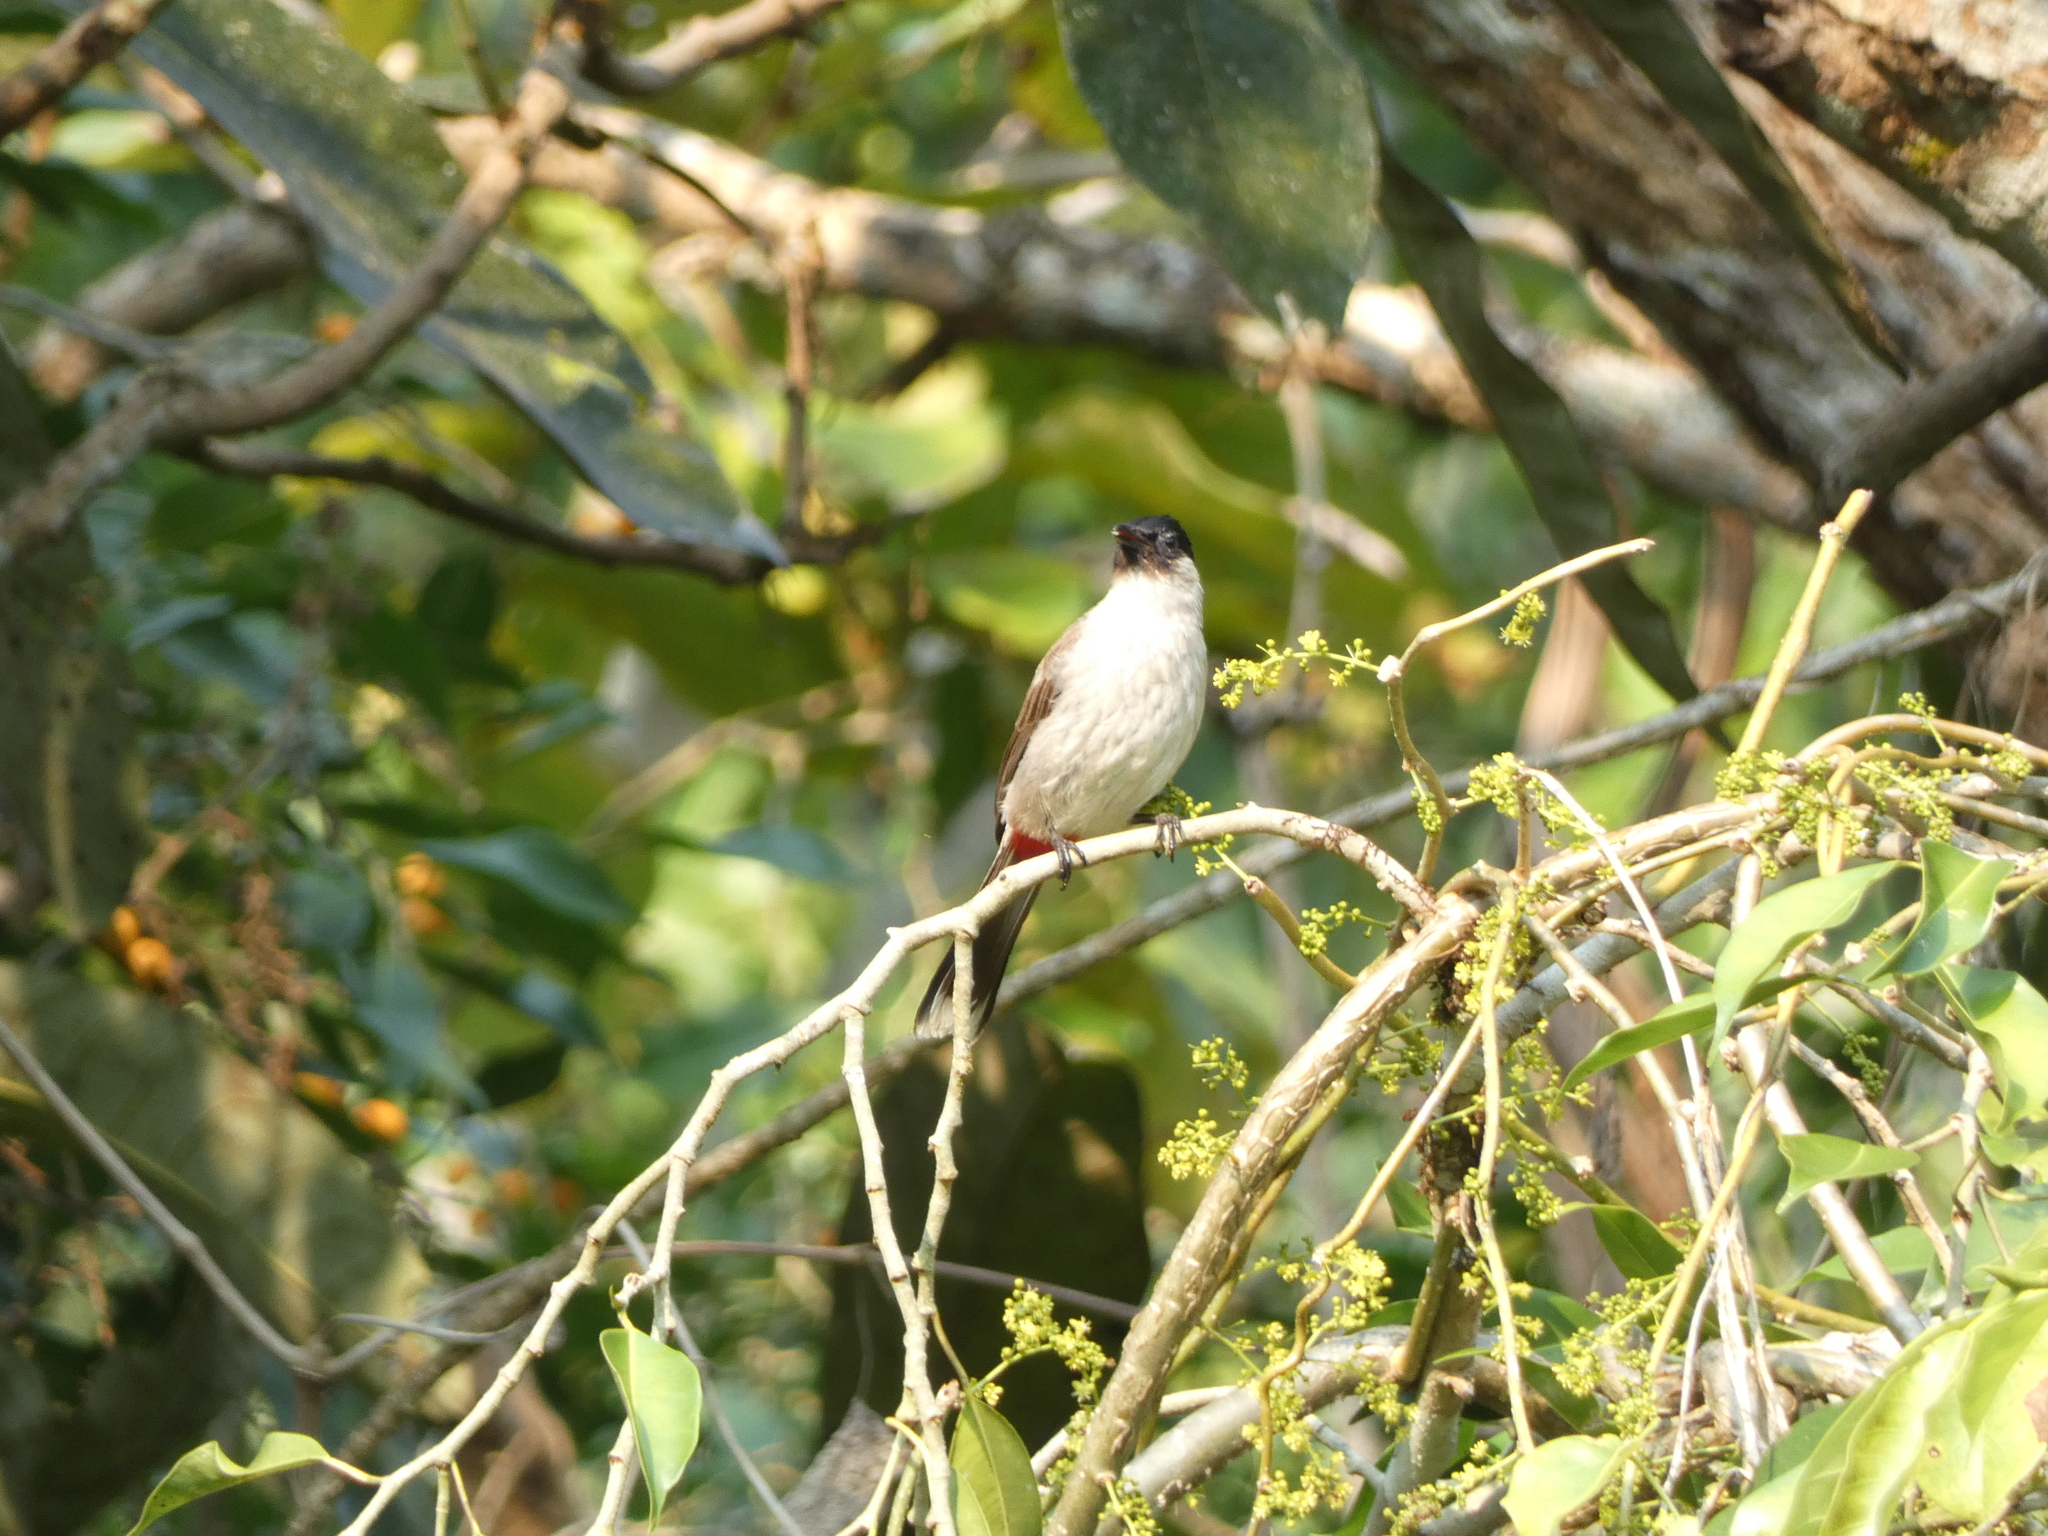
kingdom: Animalia
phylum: Chordata
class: Aves
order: Passeriformes
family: Pycnonotidae
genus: Pycnonotus
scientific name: Pycnonotus aurigaster
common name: Sooty-headed bulbul
